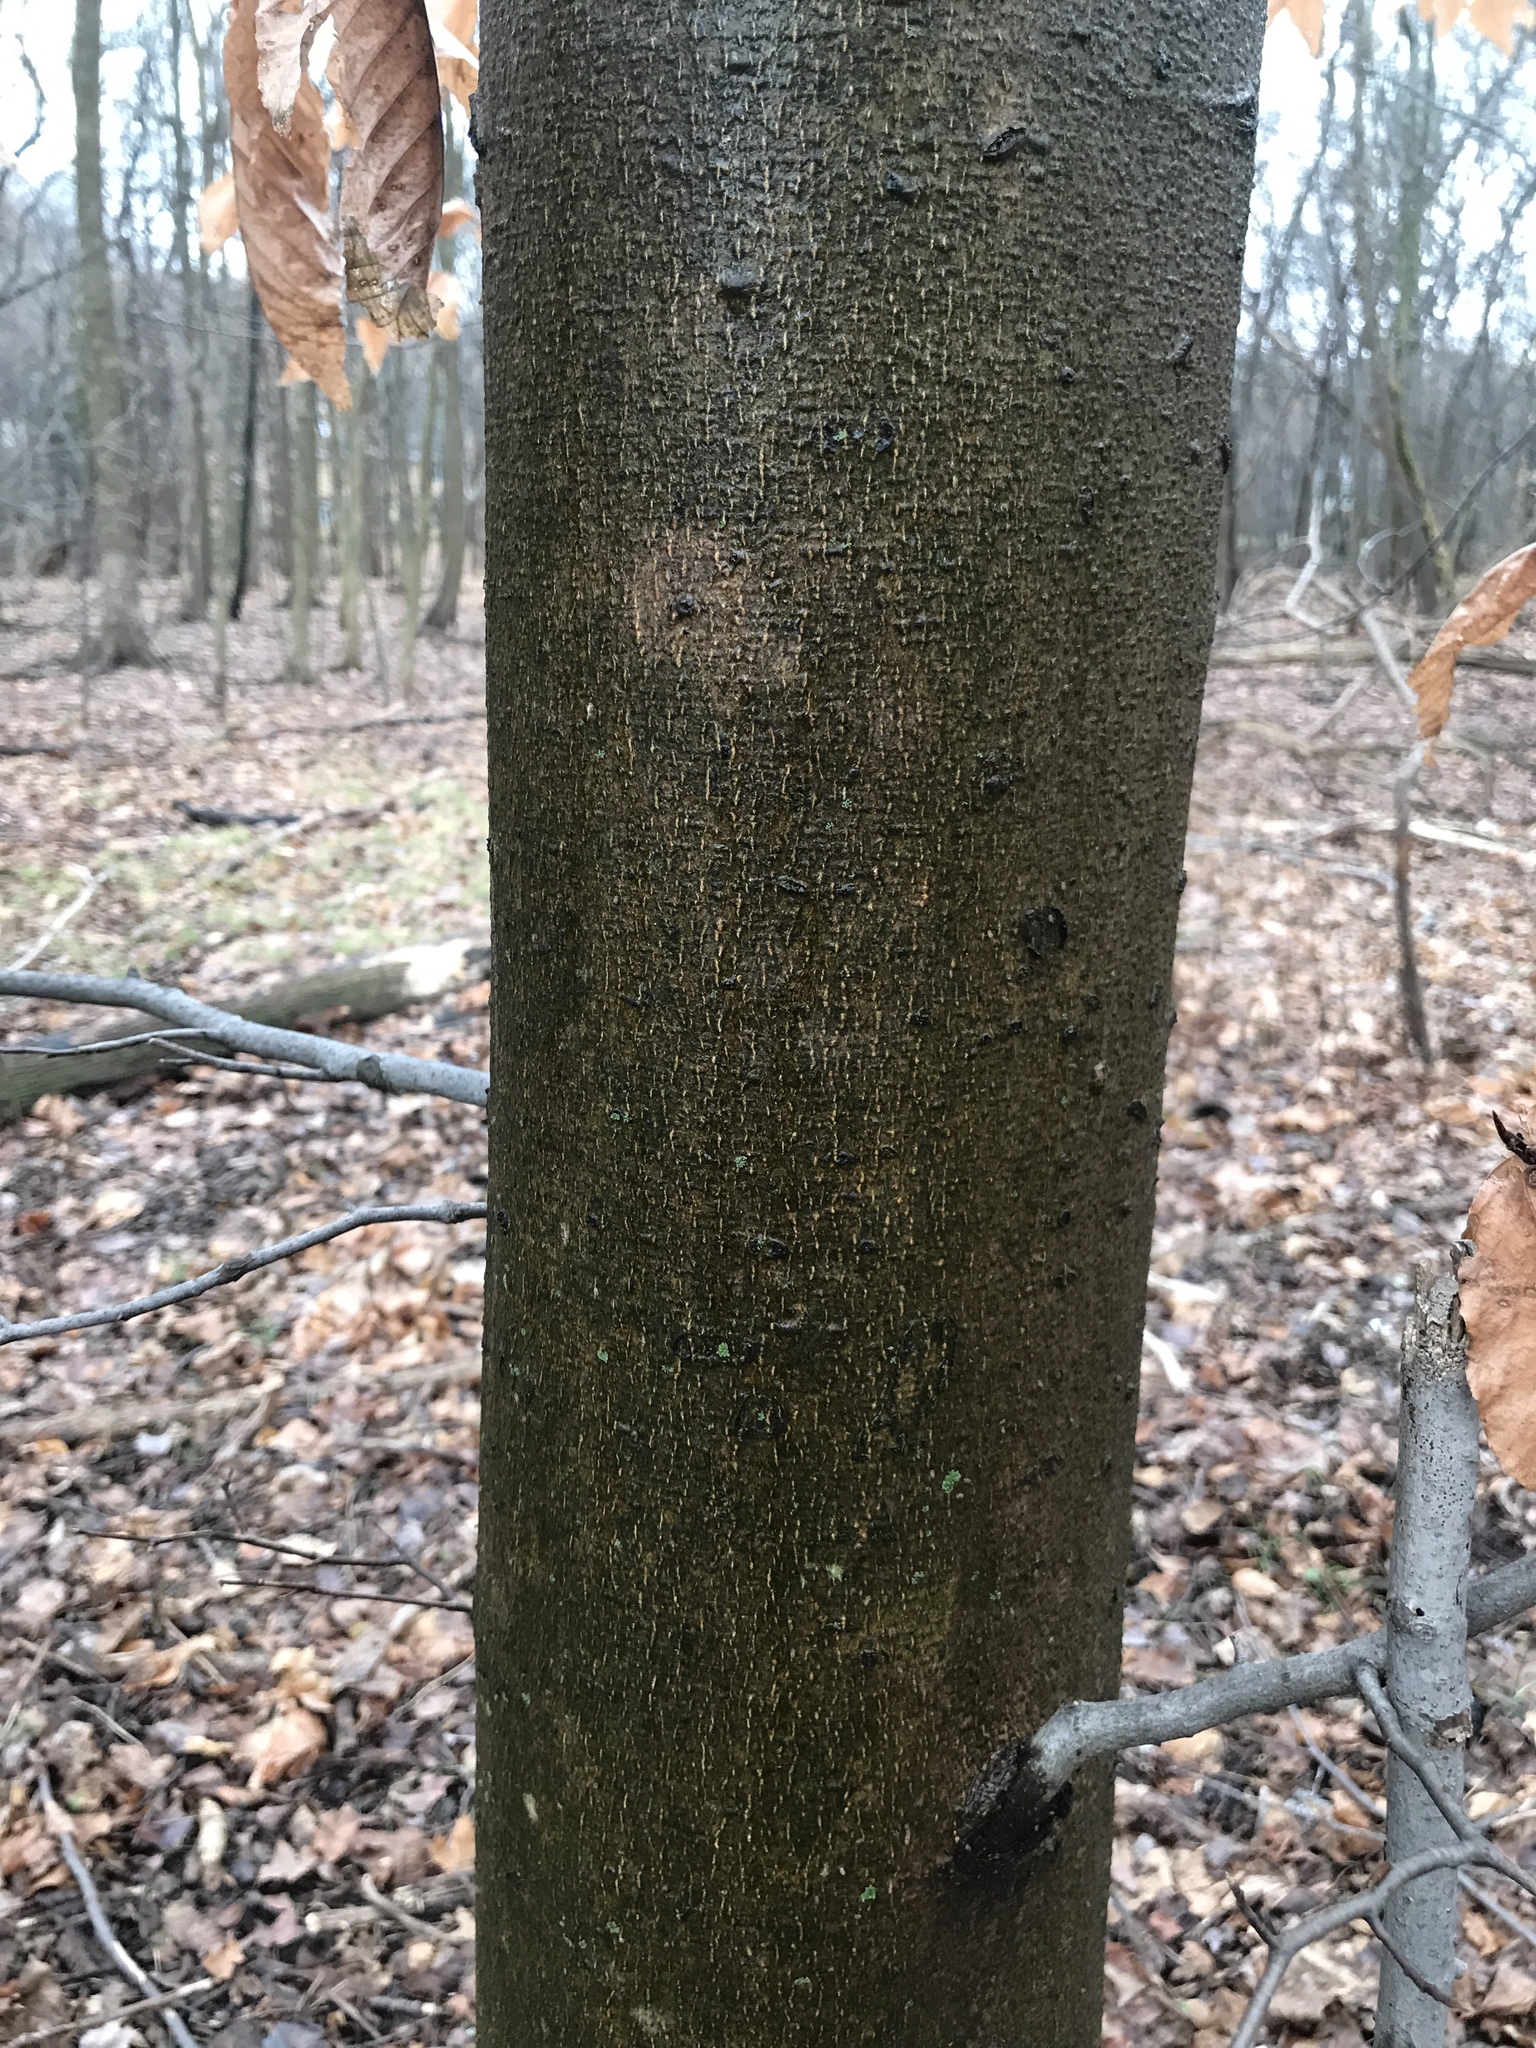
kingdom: Plantae
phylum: Tracheophyta
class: Magnoliopsida
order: Fagales
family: Fagaceae
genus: Fagus
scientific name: Fagus grandifolia
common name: American beech
